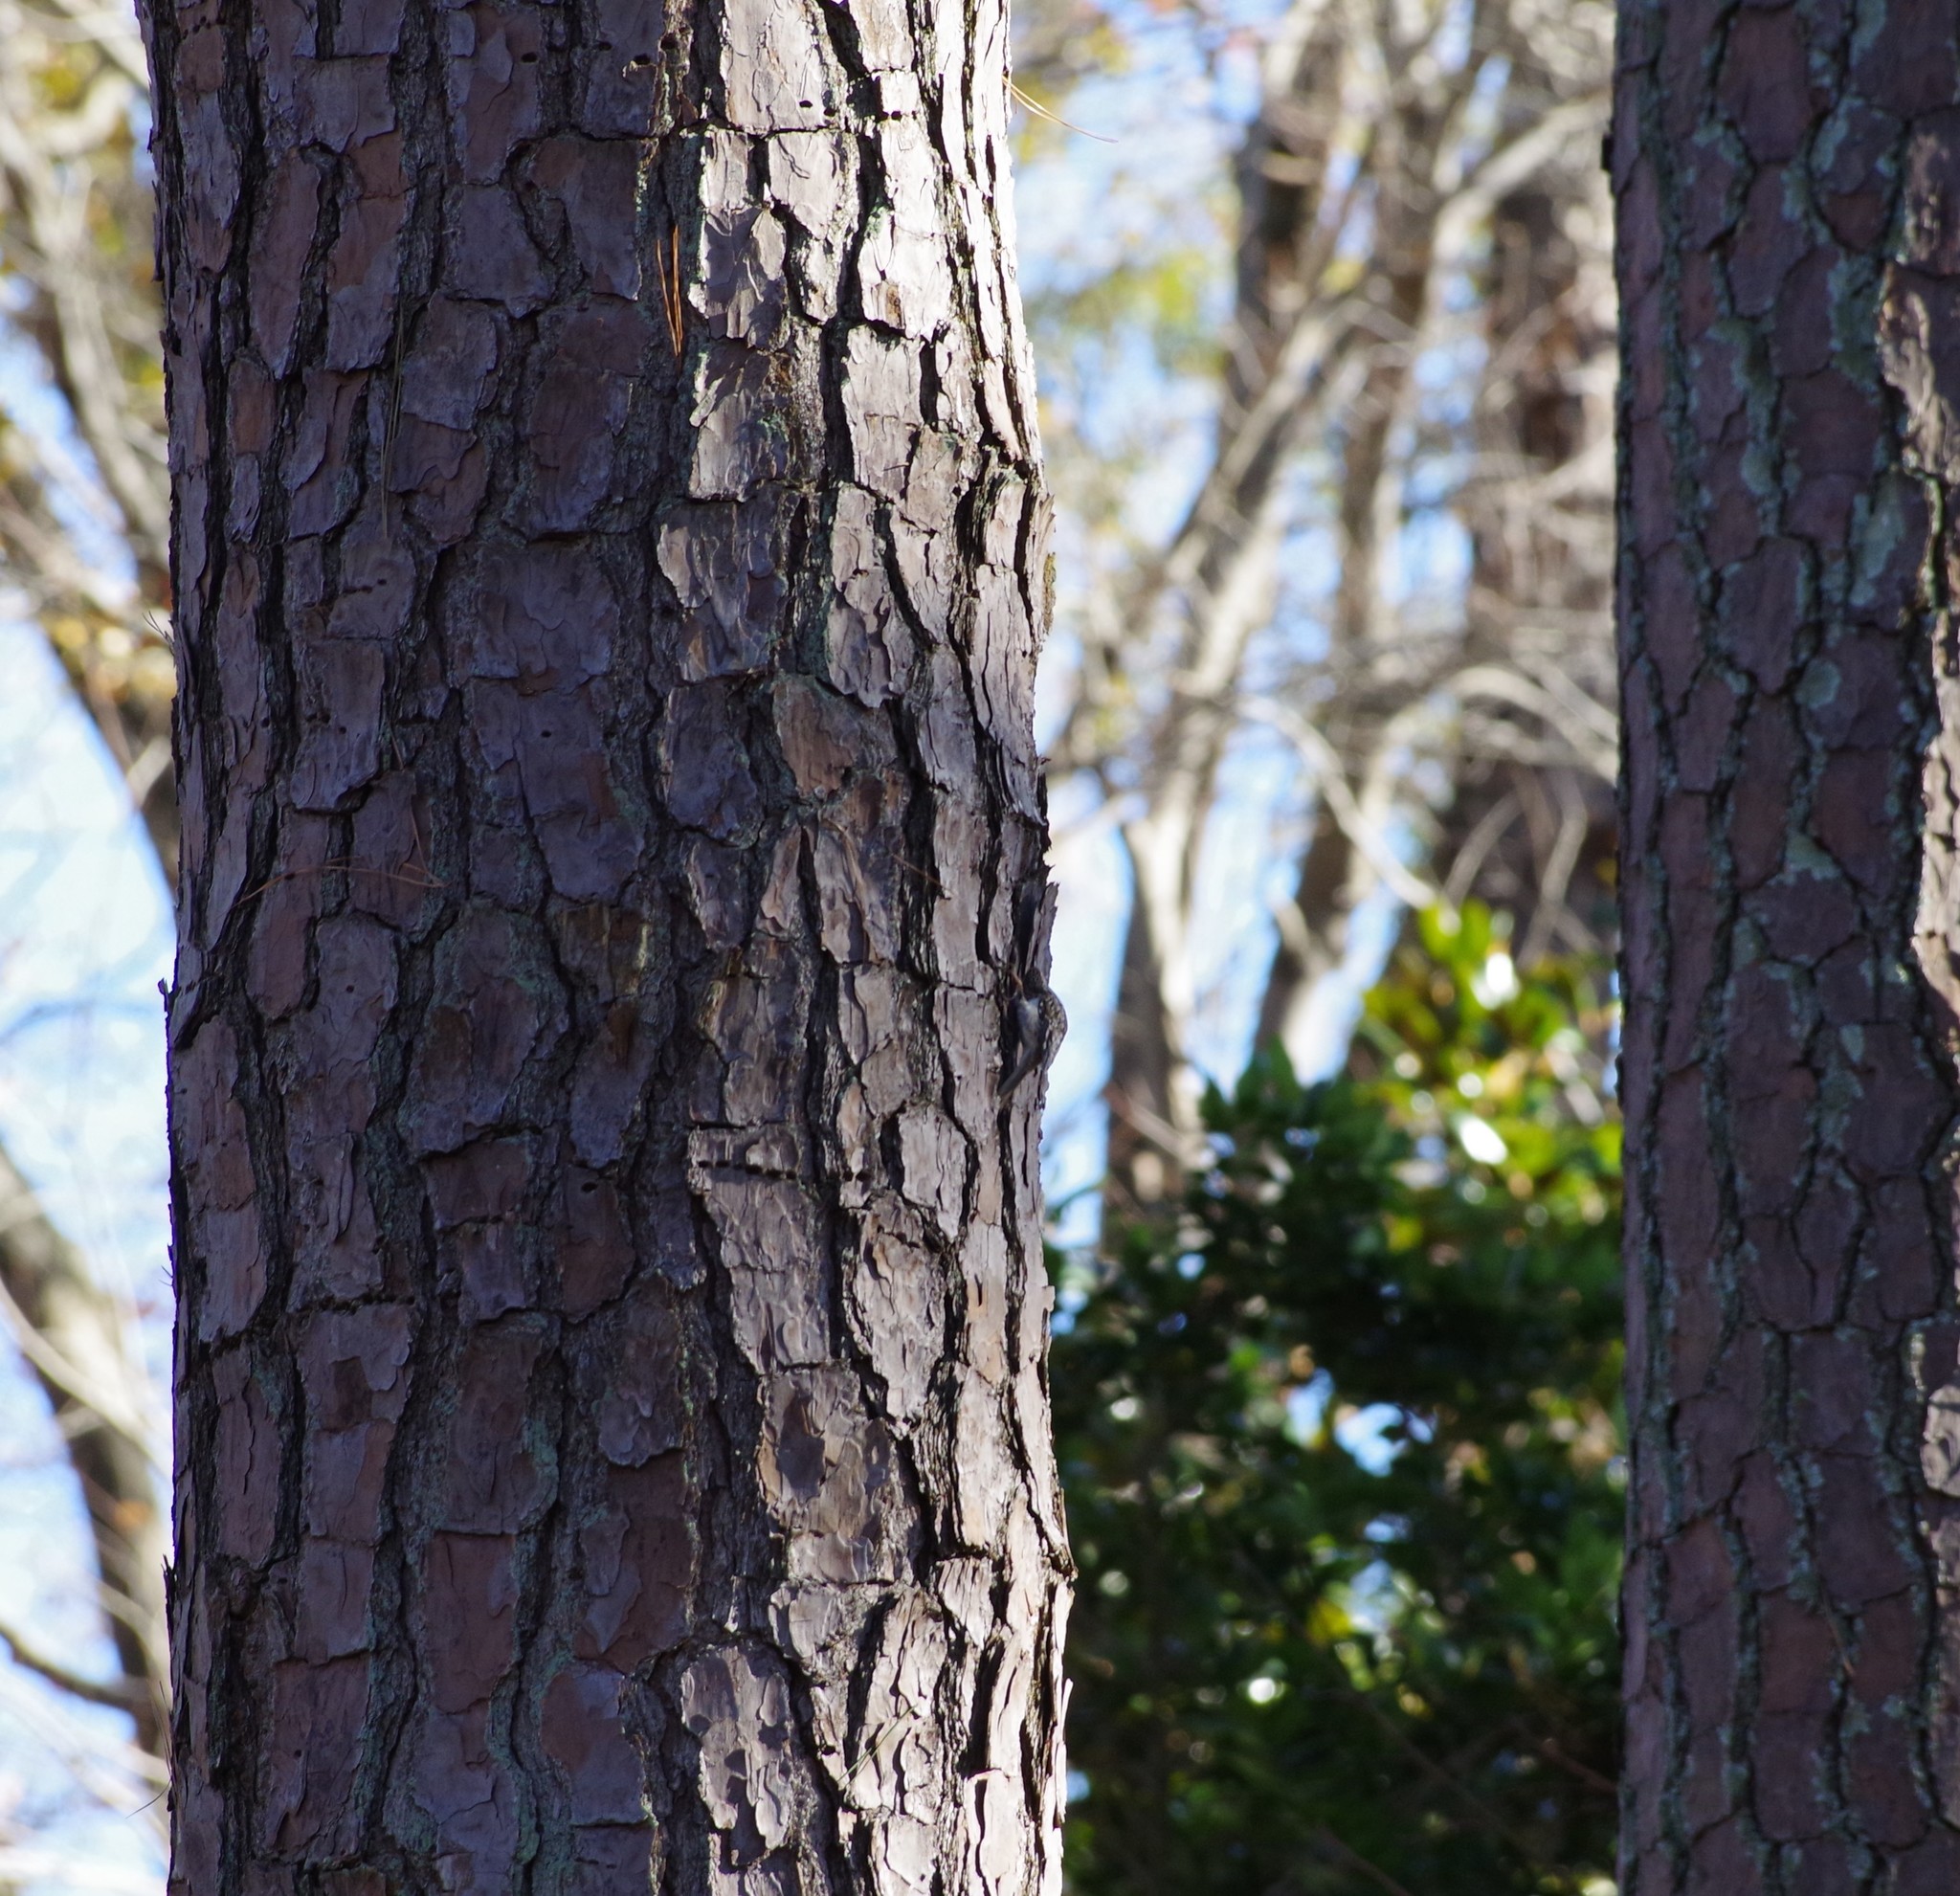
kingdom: Animalia
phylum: Chordata
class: Aves
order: Passeriformes
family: Certhiidae
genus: Certhia
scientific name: Certhia americana
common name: Brown creeper
